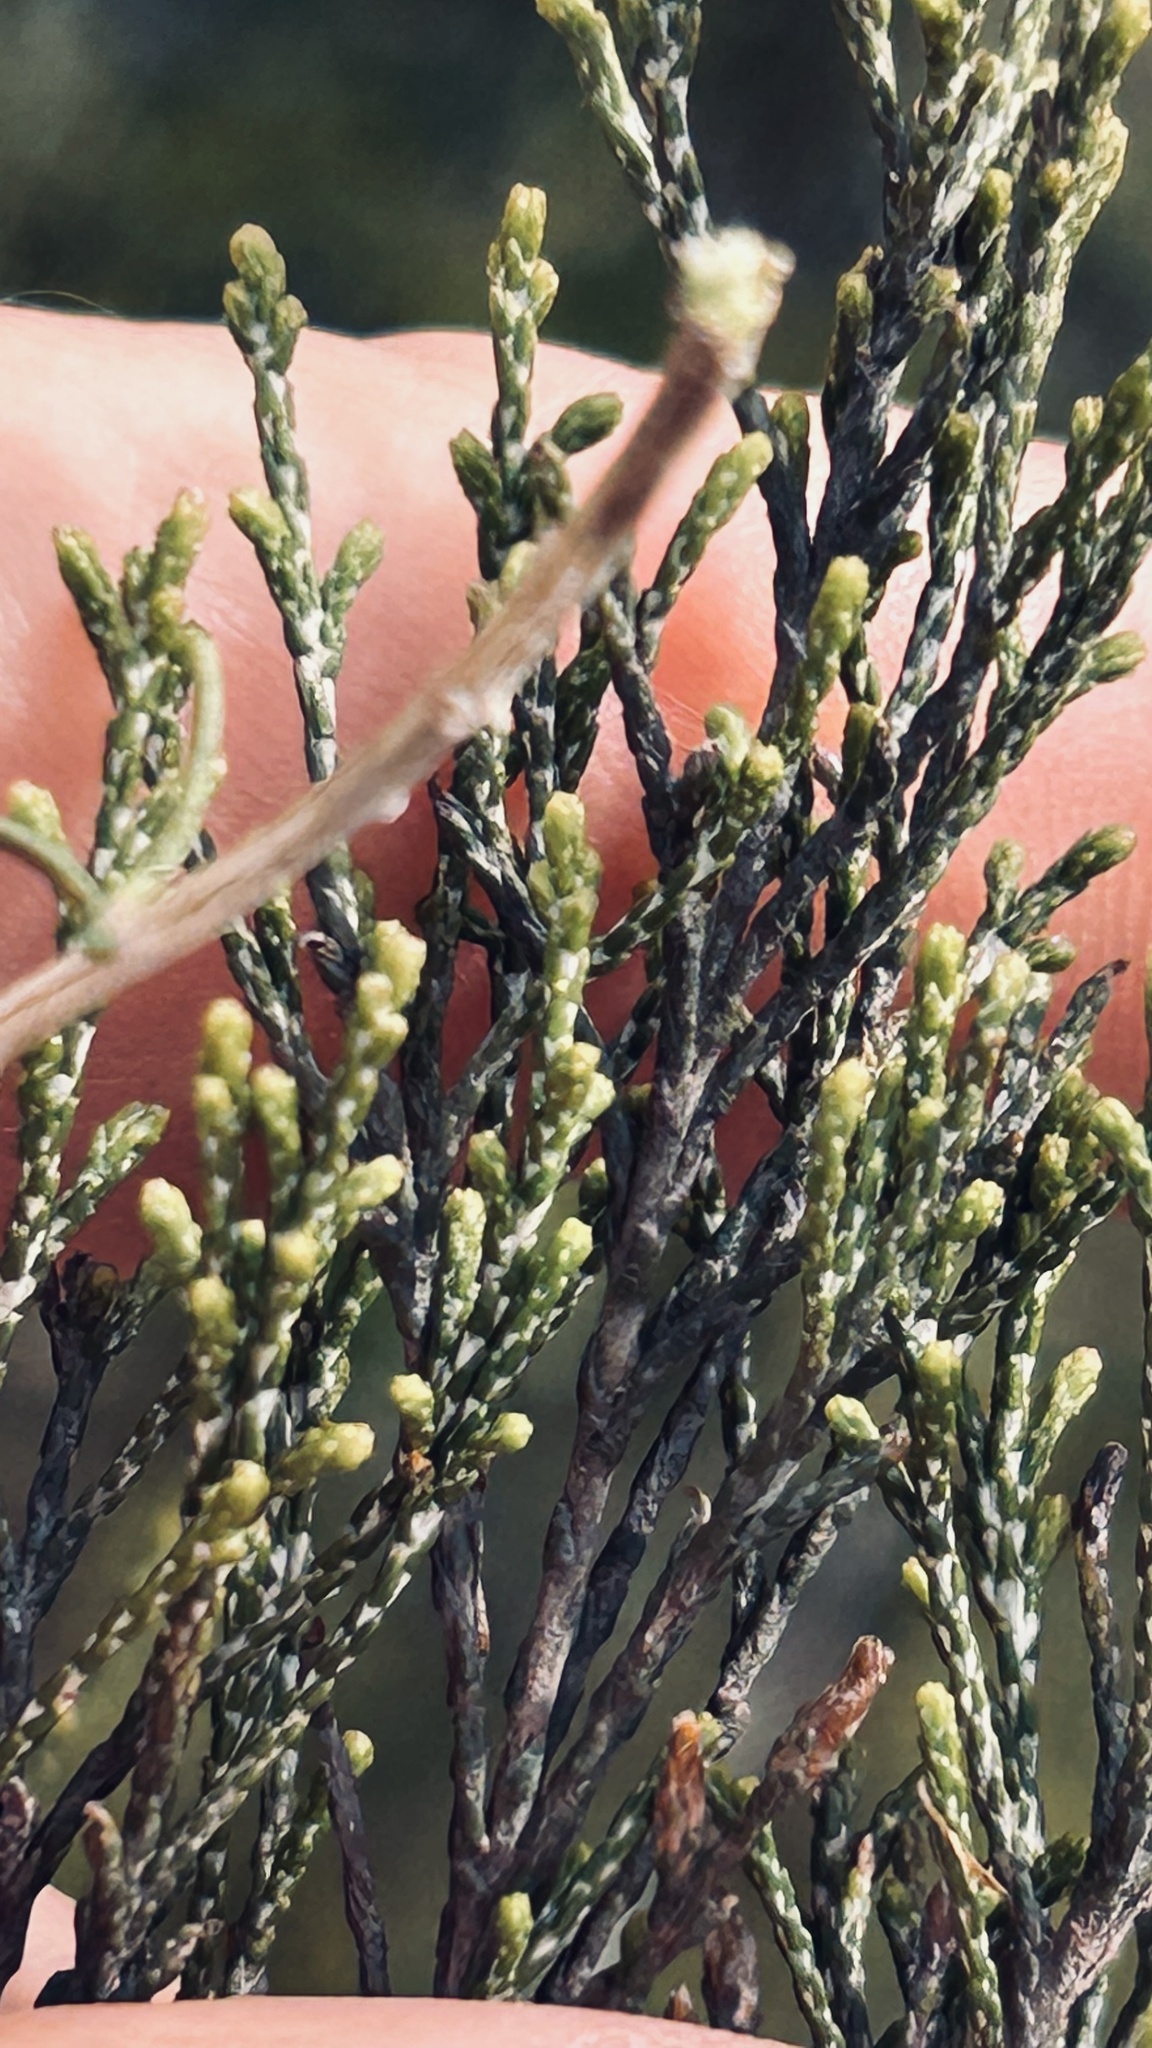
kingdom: Plantae
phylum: Tracheophyta
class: Magnoliopsida
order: Asterales
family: Asteraceae
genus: Dicerothamnus
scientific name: Dicerothamnus rhinocerotis
